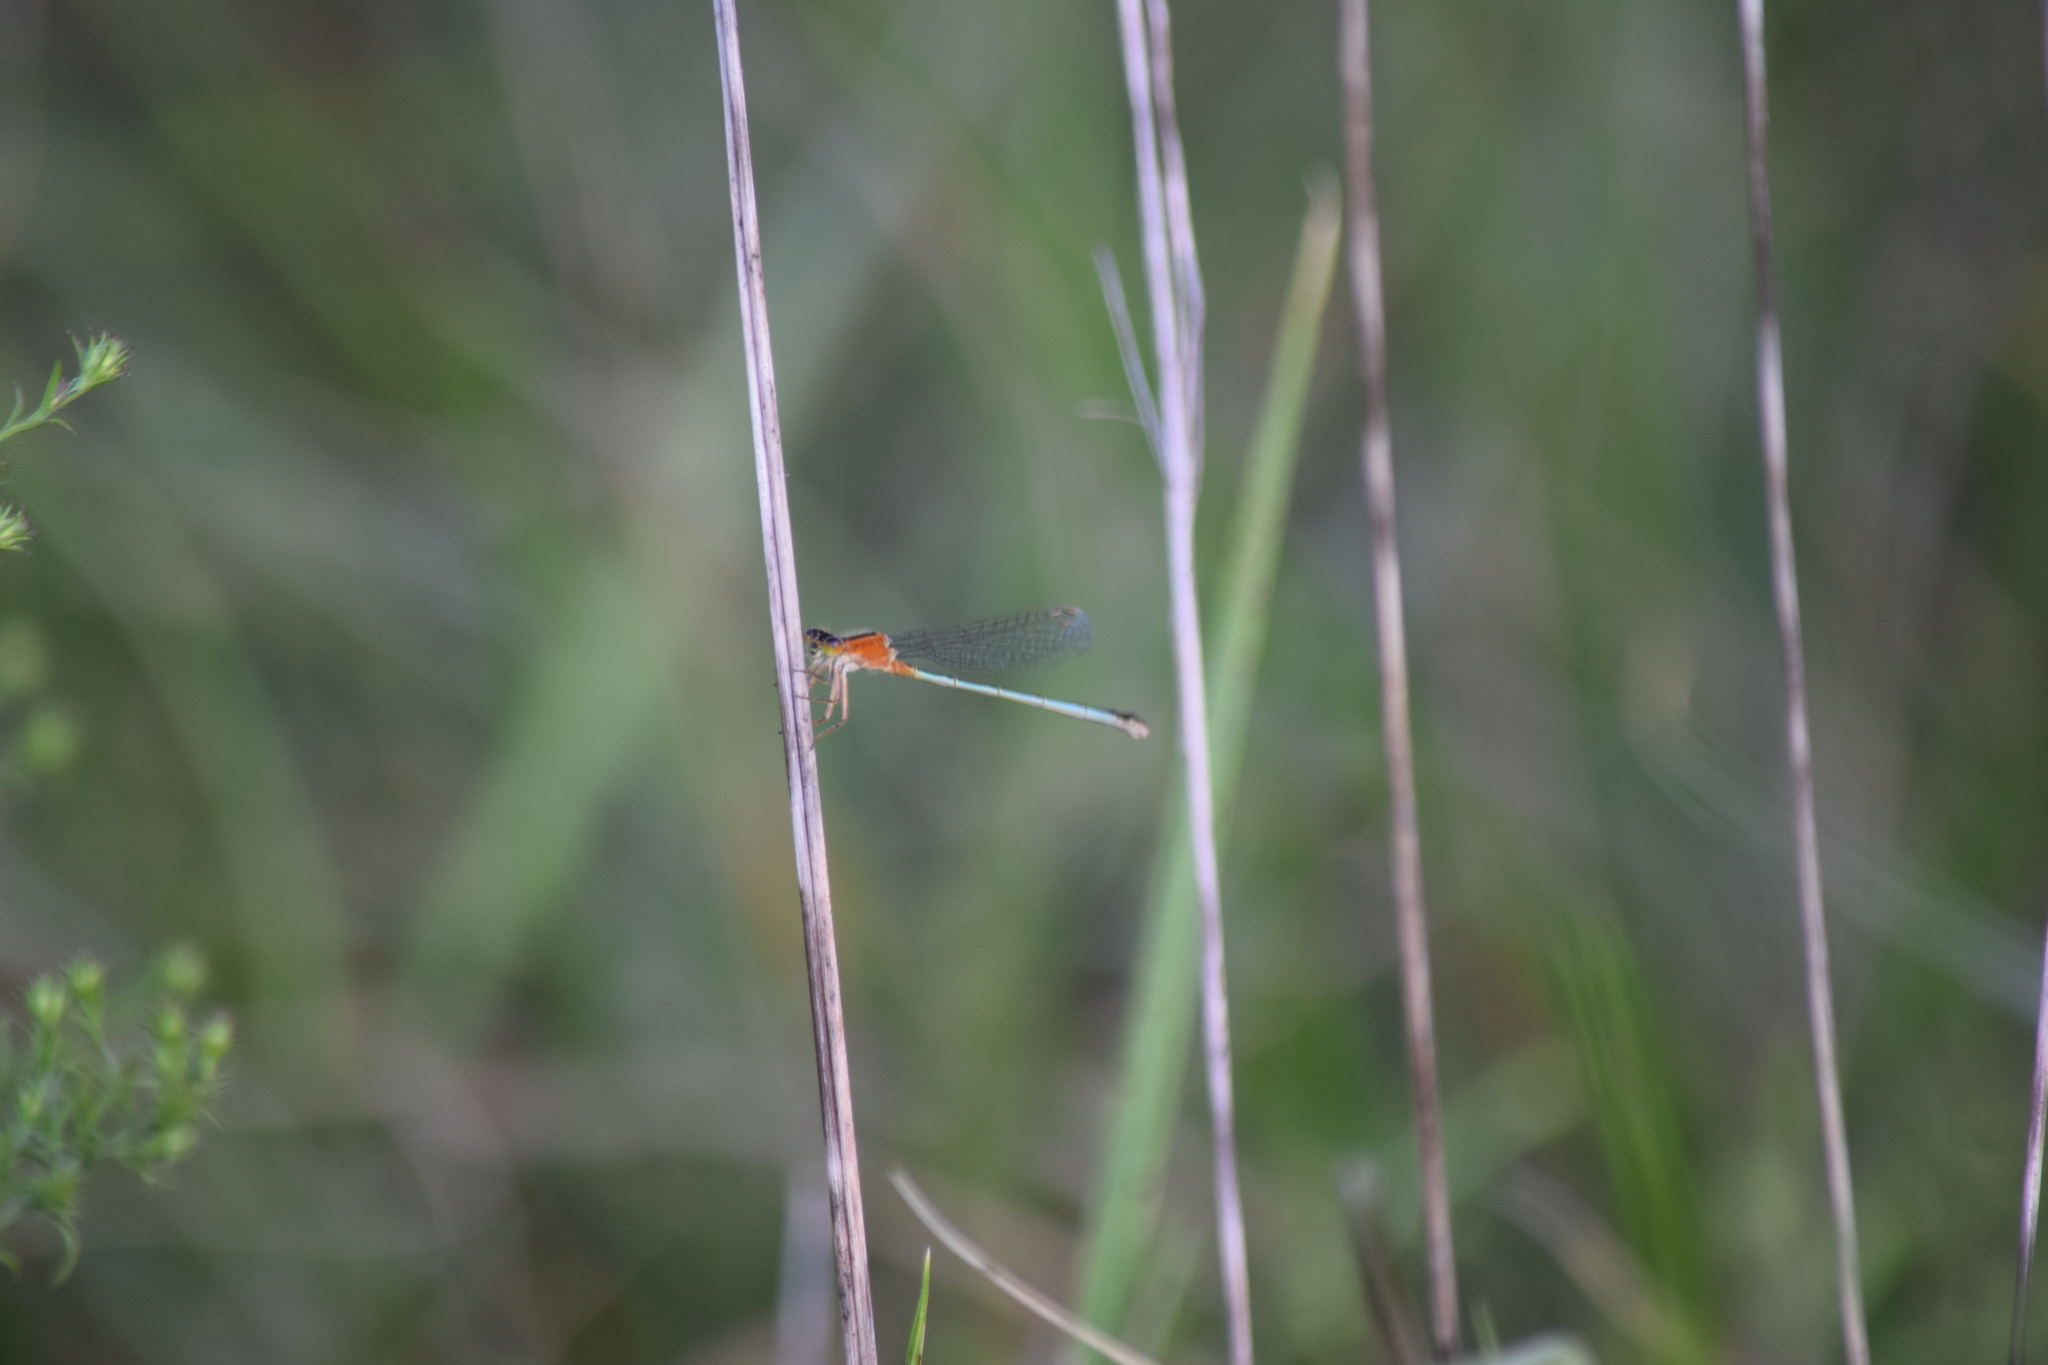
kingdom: Animalia
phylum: Arthropoda
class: Insecta
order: Odonata
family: Coenagrionidae
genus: Ischnura
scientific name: Ischnura ramburii
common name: Rambur's forktail
